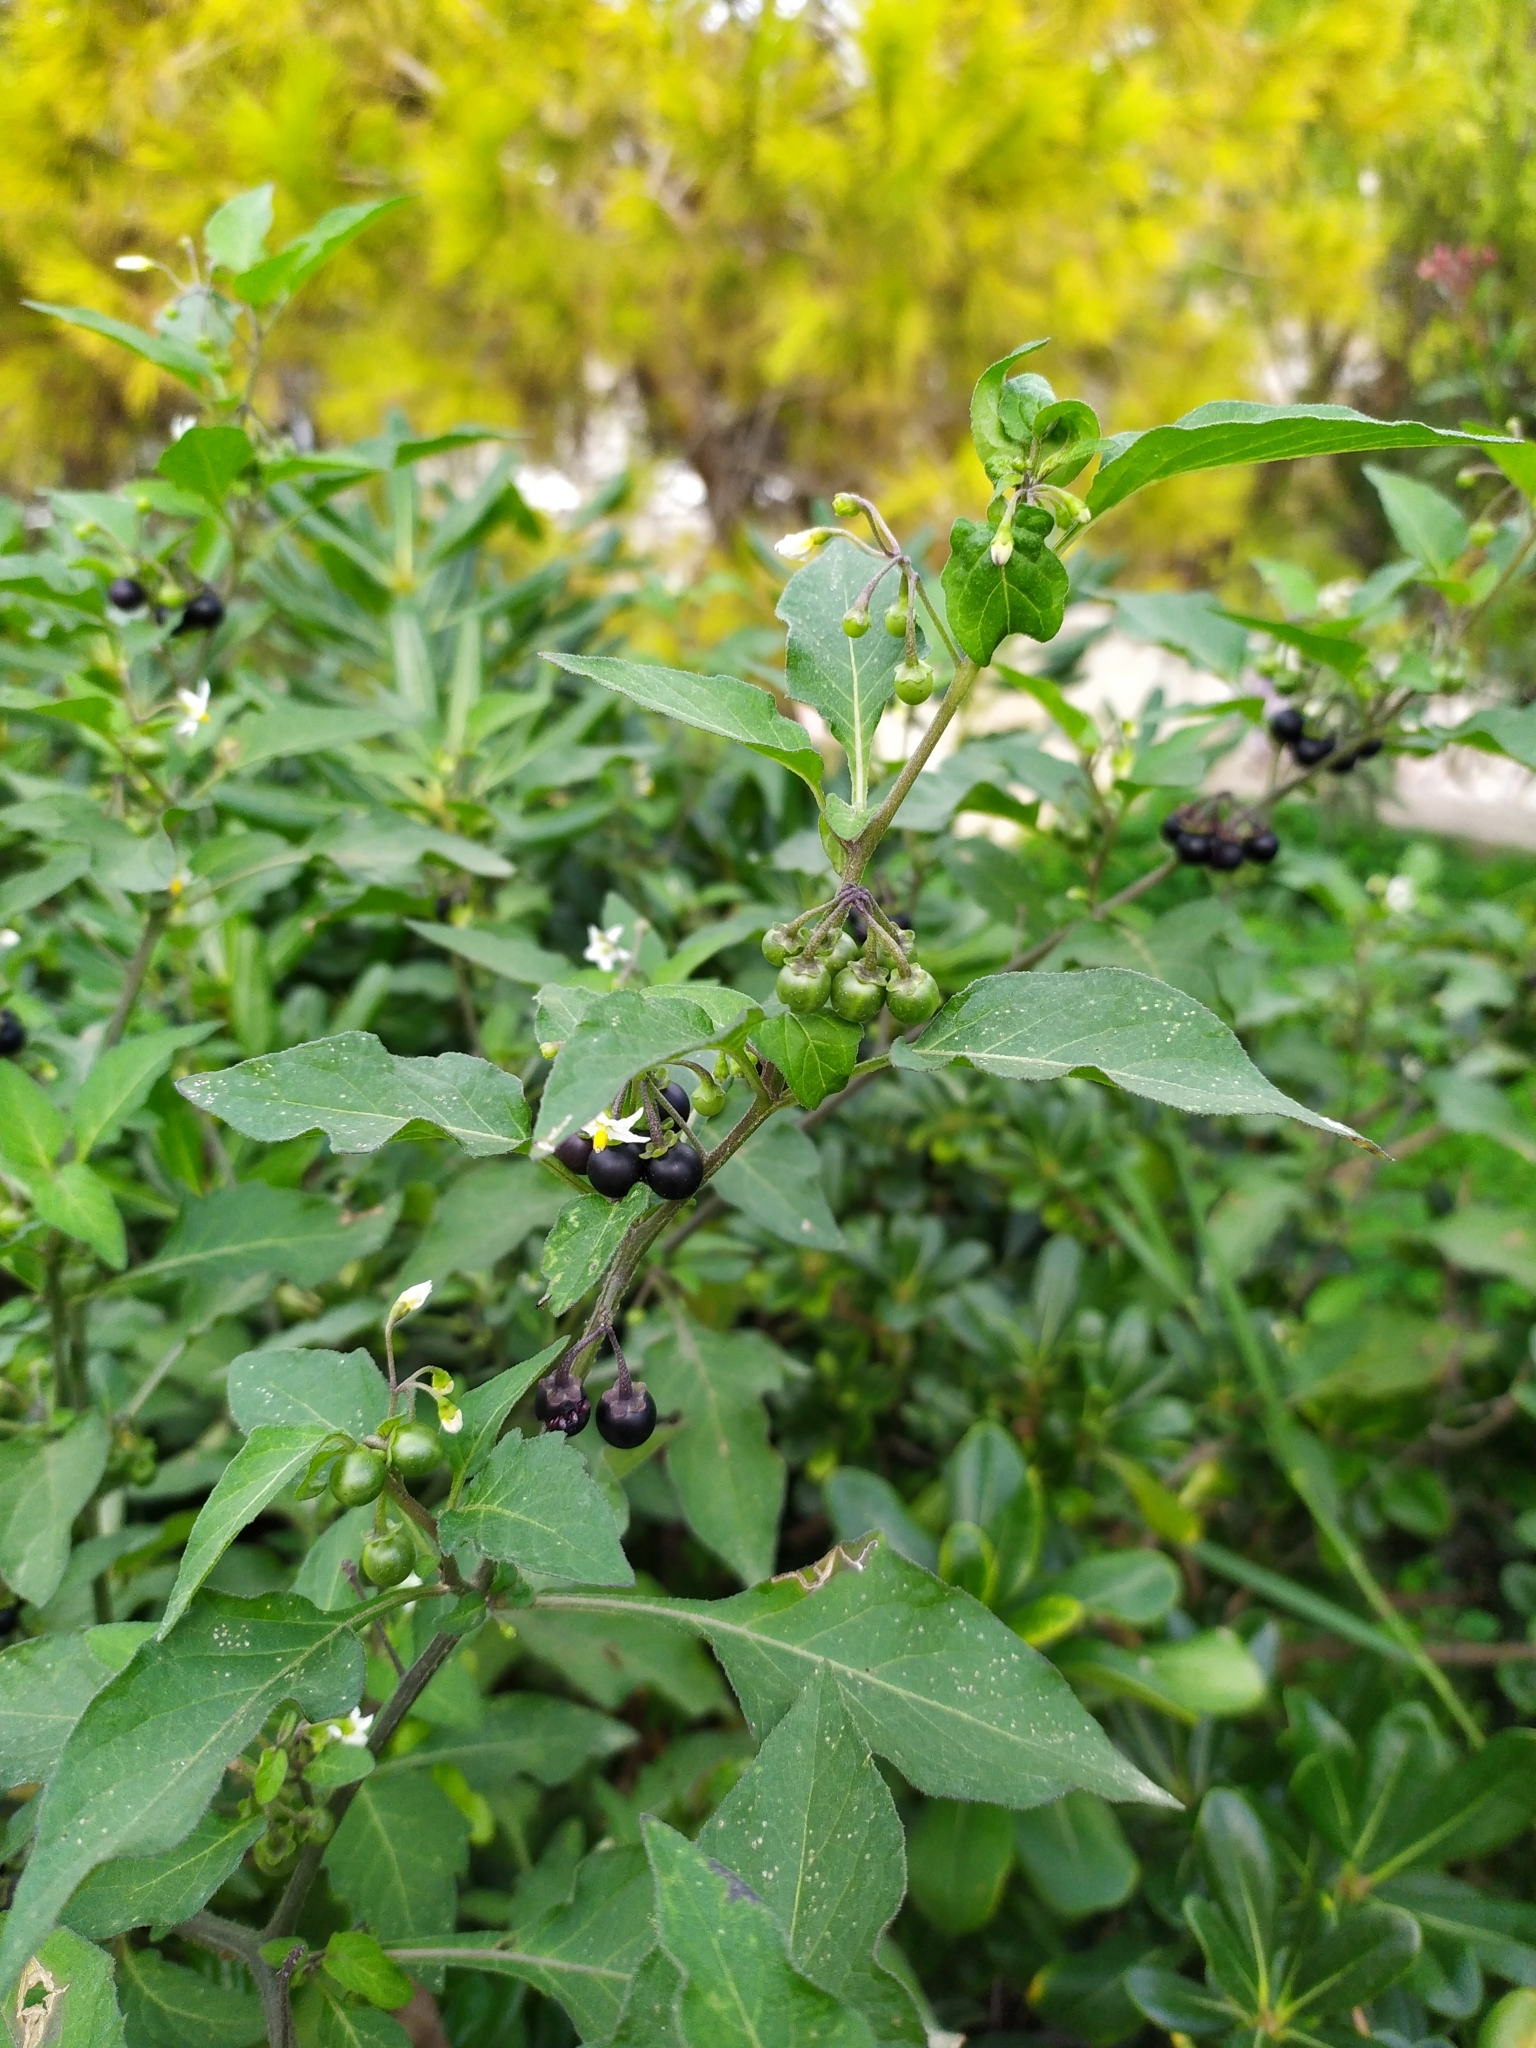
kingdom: Plantae
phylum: Tracheophyta
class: Magnoliopsida
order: Solanales
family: Solanaceae
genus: Solanum
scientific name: Solanum nigrum
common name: Black nightshade
